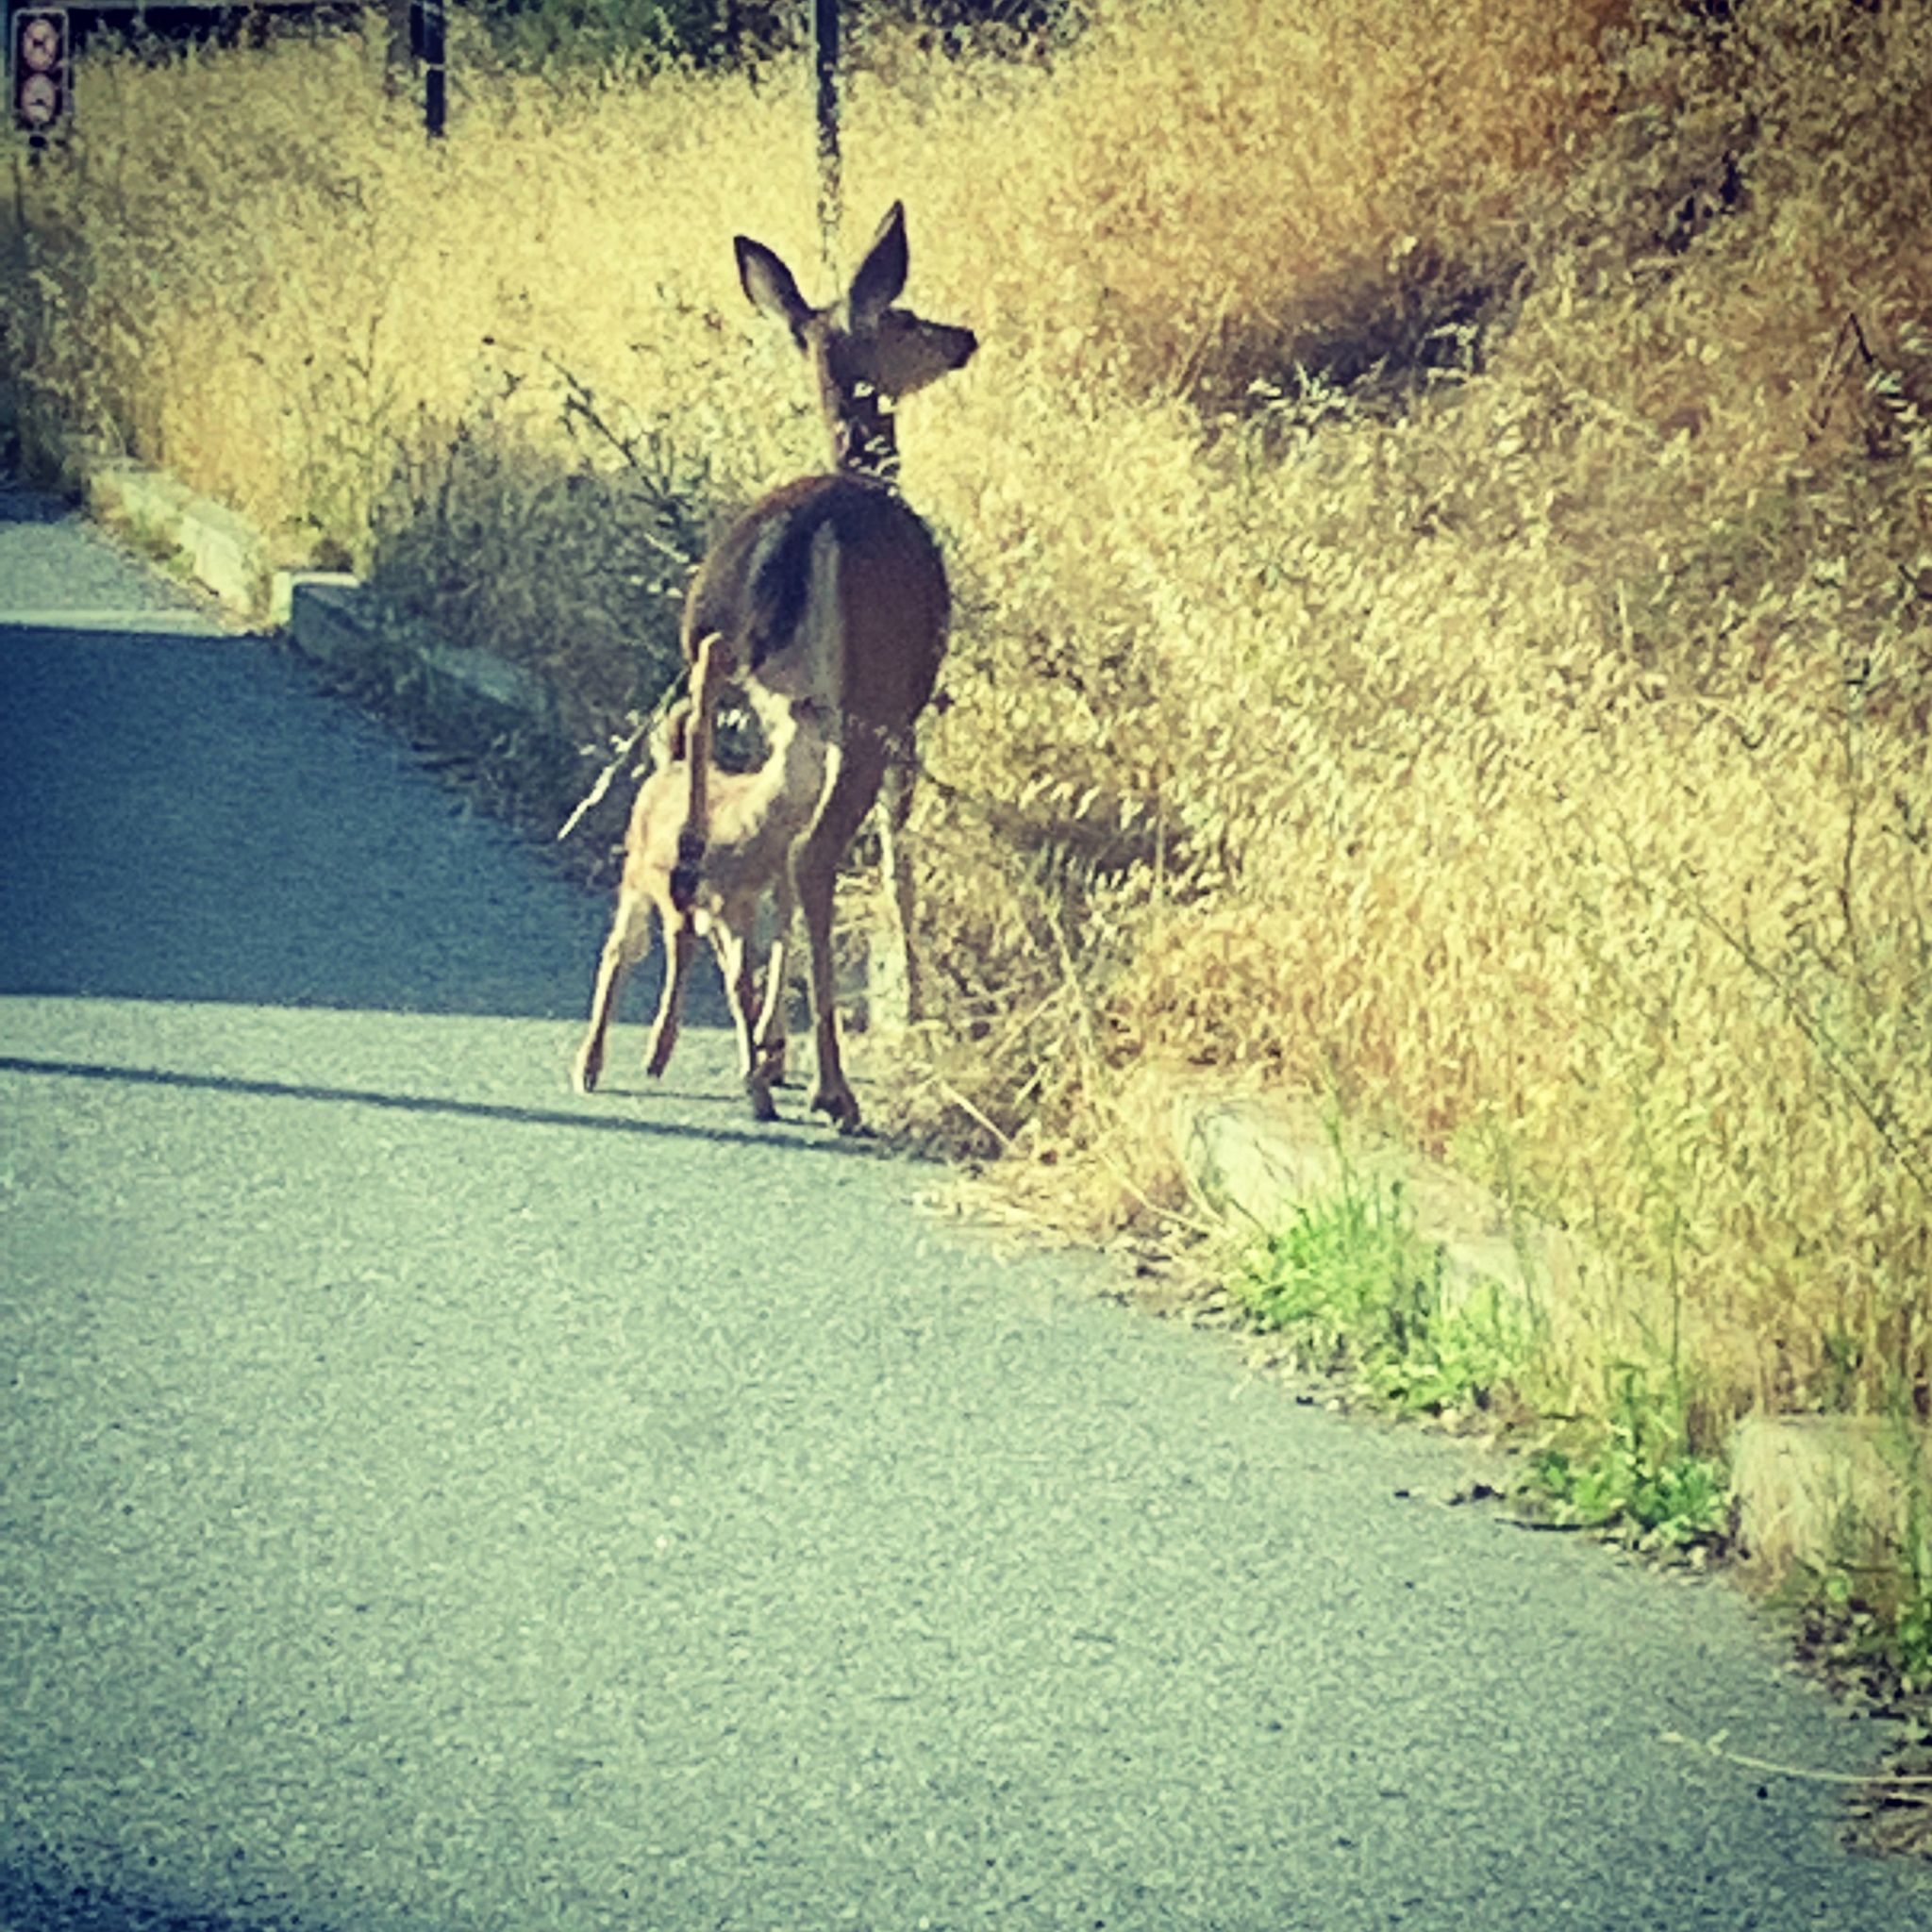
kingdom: Animalia
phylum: Chordata
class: Mammalia
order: Artiodactyla
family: Cervidae
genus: Odocoileus
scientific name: Odocoileus hemionus
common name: Mule deer
